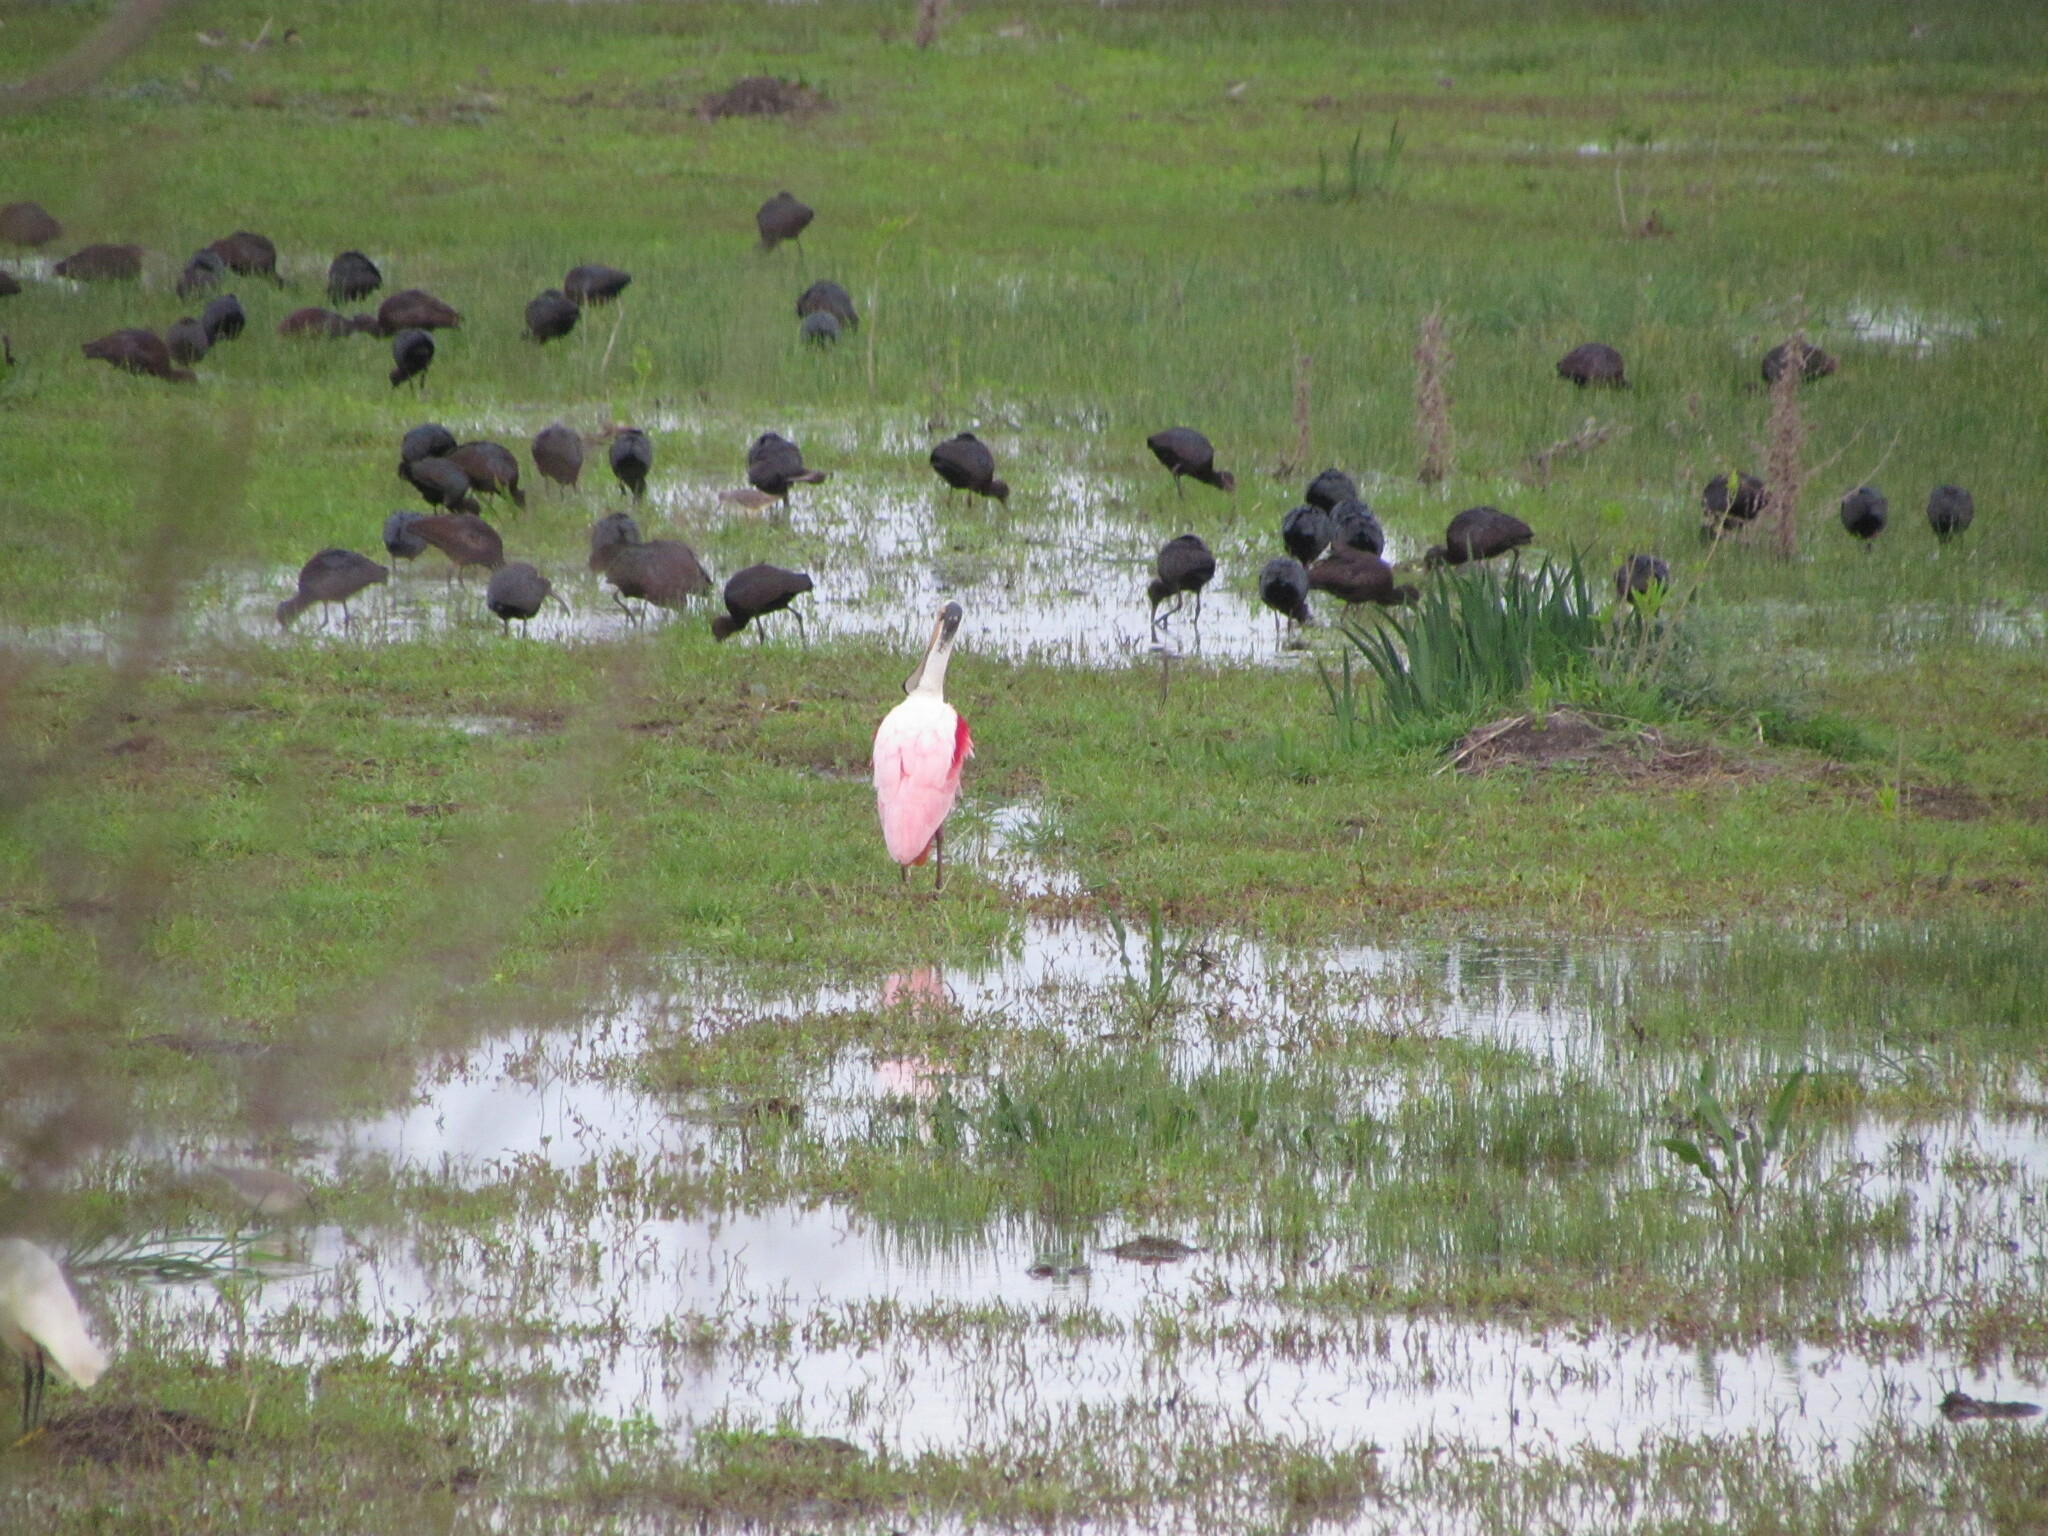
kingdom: Animalia
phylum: Chordata
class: Aves
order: Pelecaniformes
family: Threskiornithidae
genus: Plegadis
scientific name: Plegadis chihi
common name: White-faced ibis
